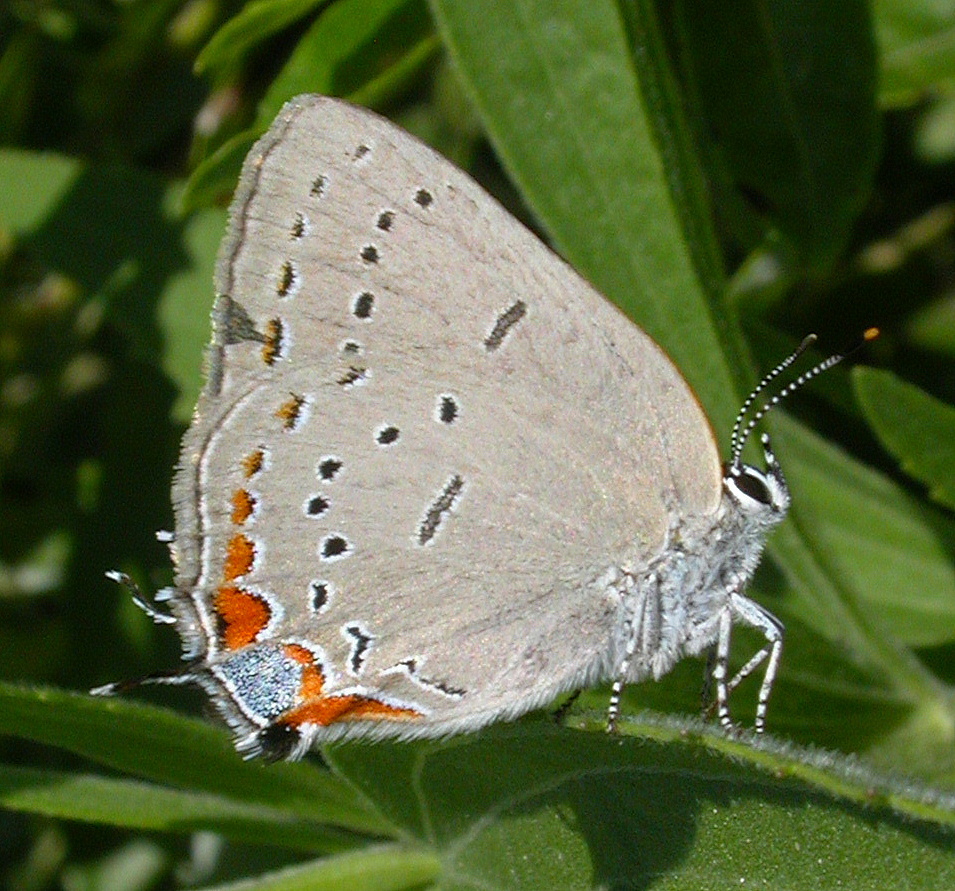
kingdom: Animalia
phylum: Arthropoda
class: Insecta
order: Lepidoptera
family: Lycaenidae
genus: Strymon
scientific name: Strymon acadica
